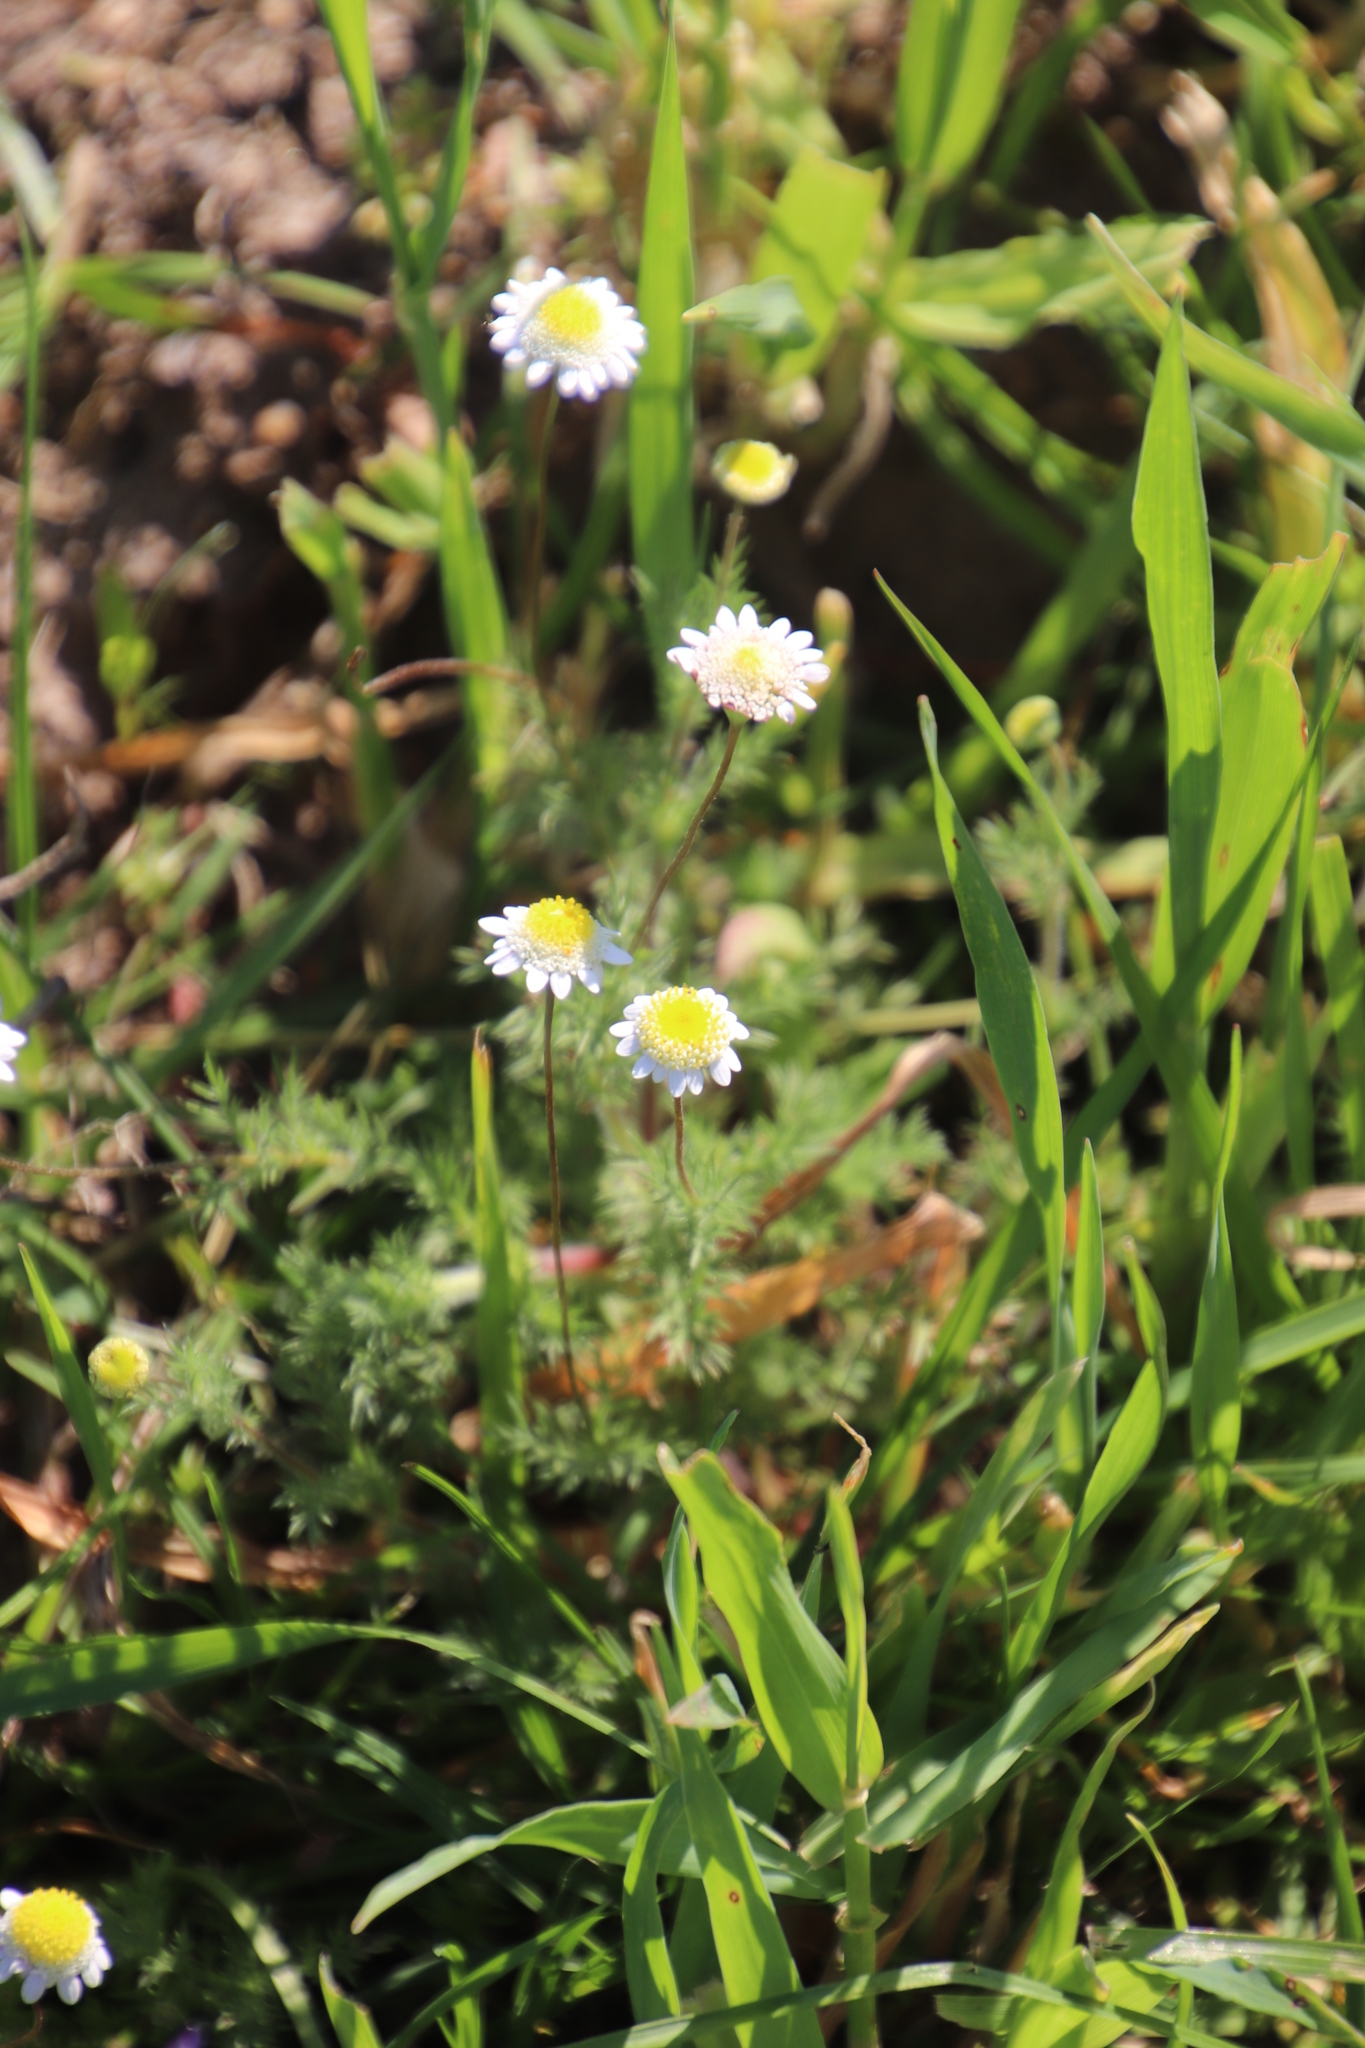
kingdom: Plantae
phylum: Tracheophyta
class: Magnoliopsida
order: Asterales
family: Asteraceae
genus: Cotula
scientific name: Cotula turbinata
